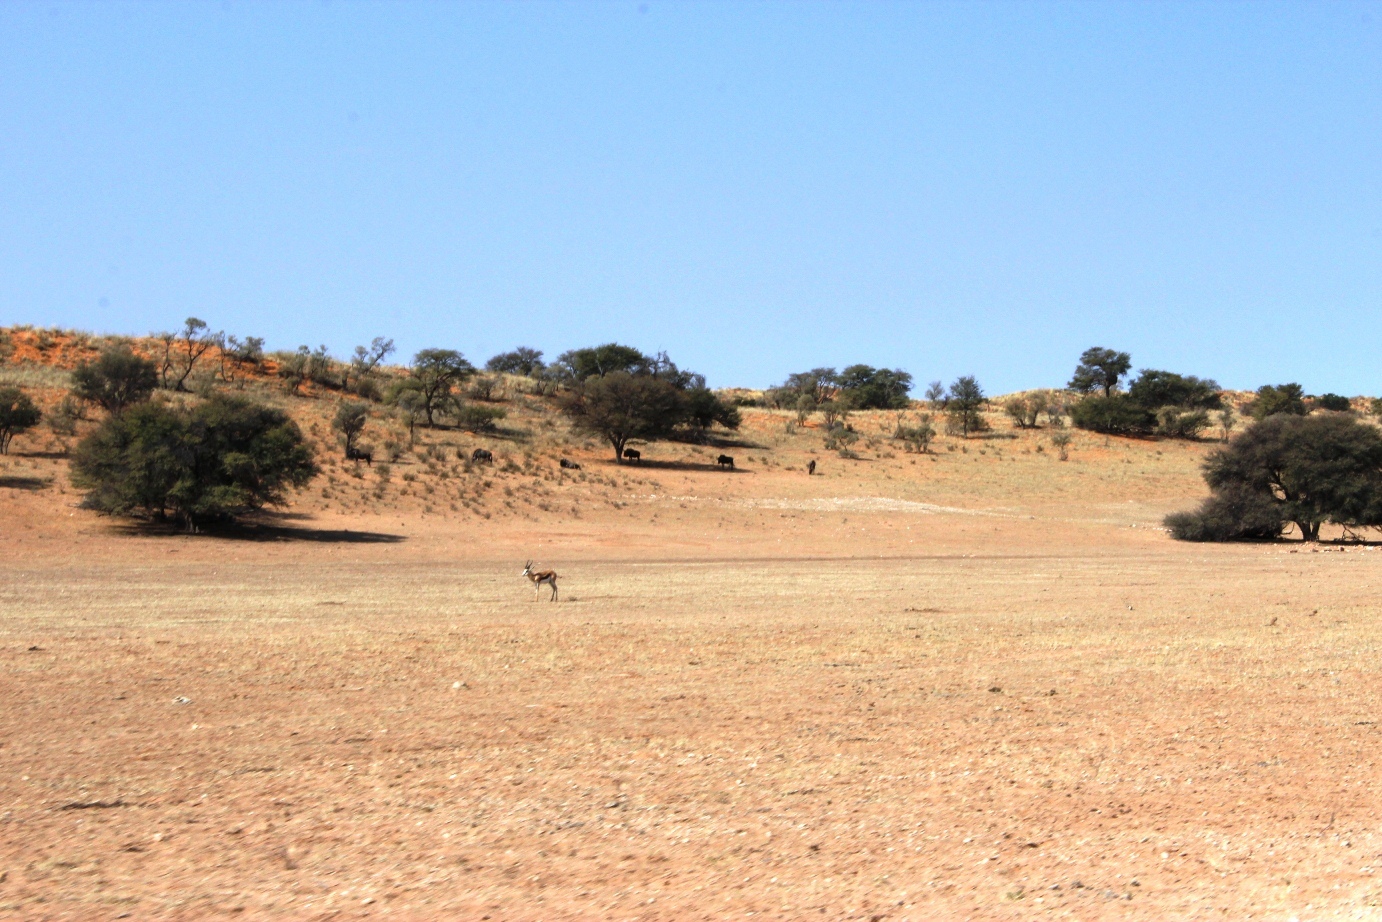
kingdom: Animalia
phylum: Chordata
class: Mammalia
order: Artiodactyla
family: Bovidae
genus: Antidorcas
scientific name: Antidorcas marsupialis
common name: Springbok
